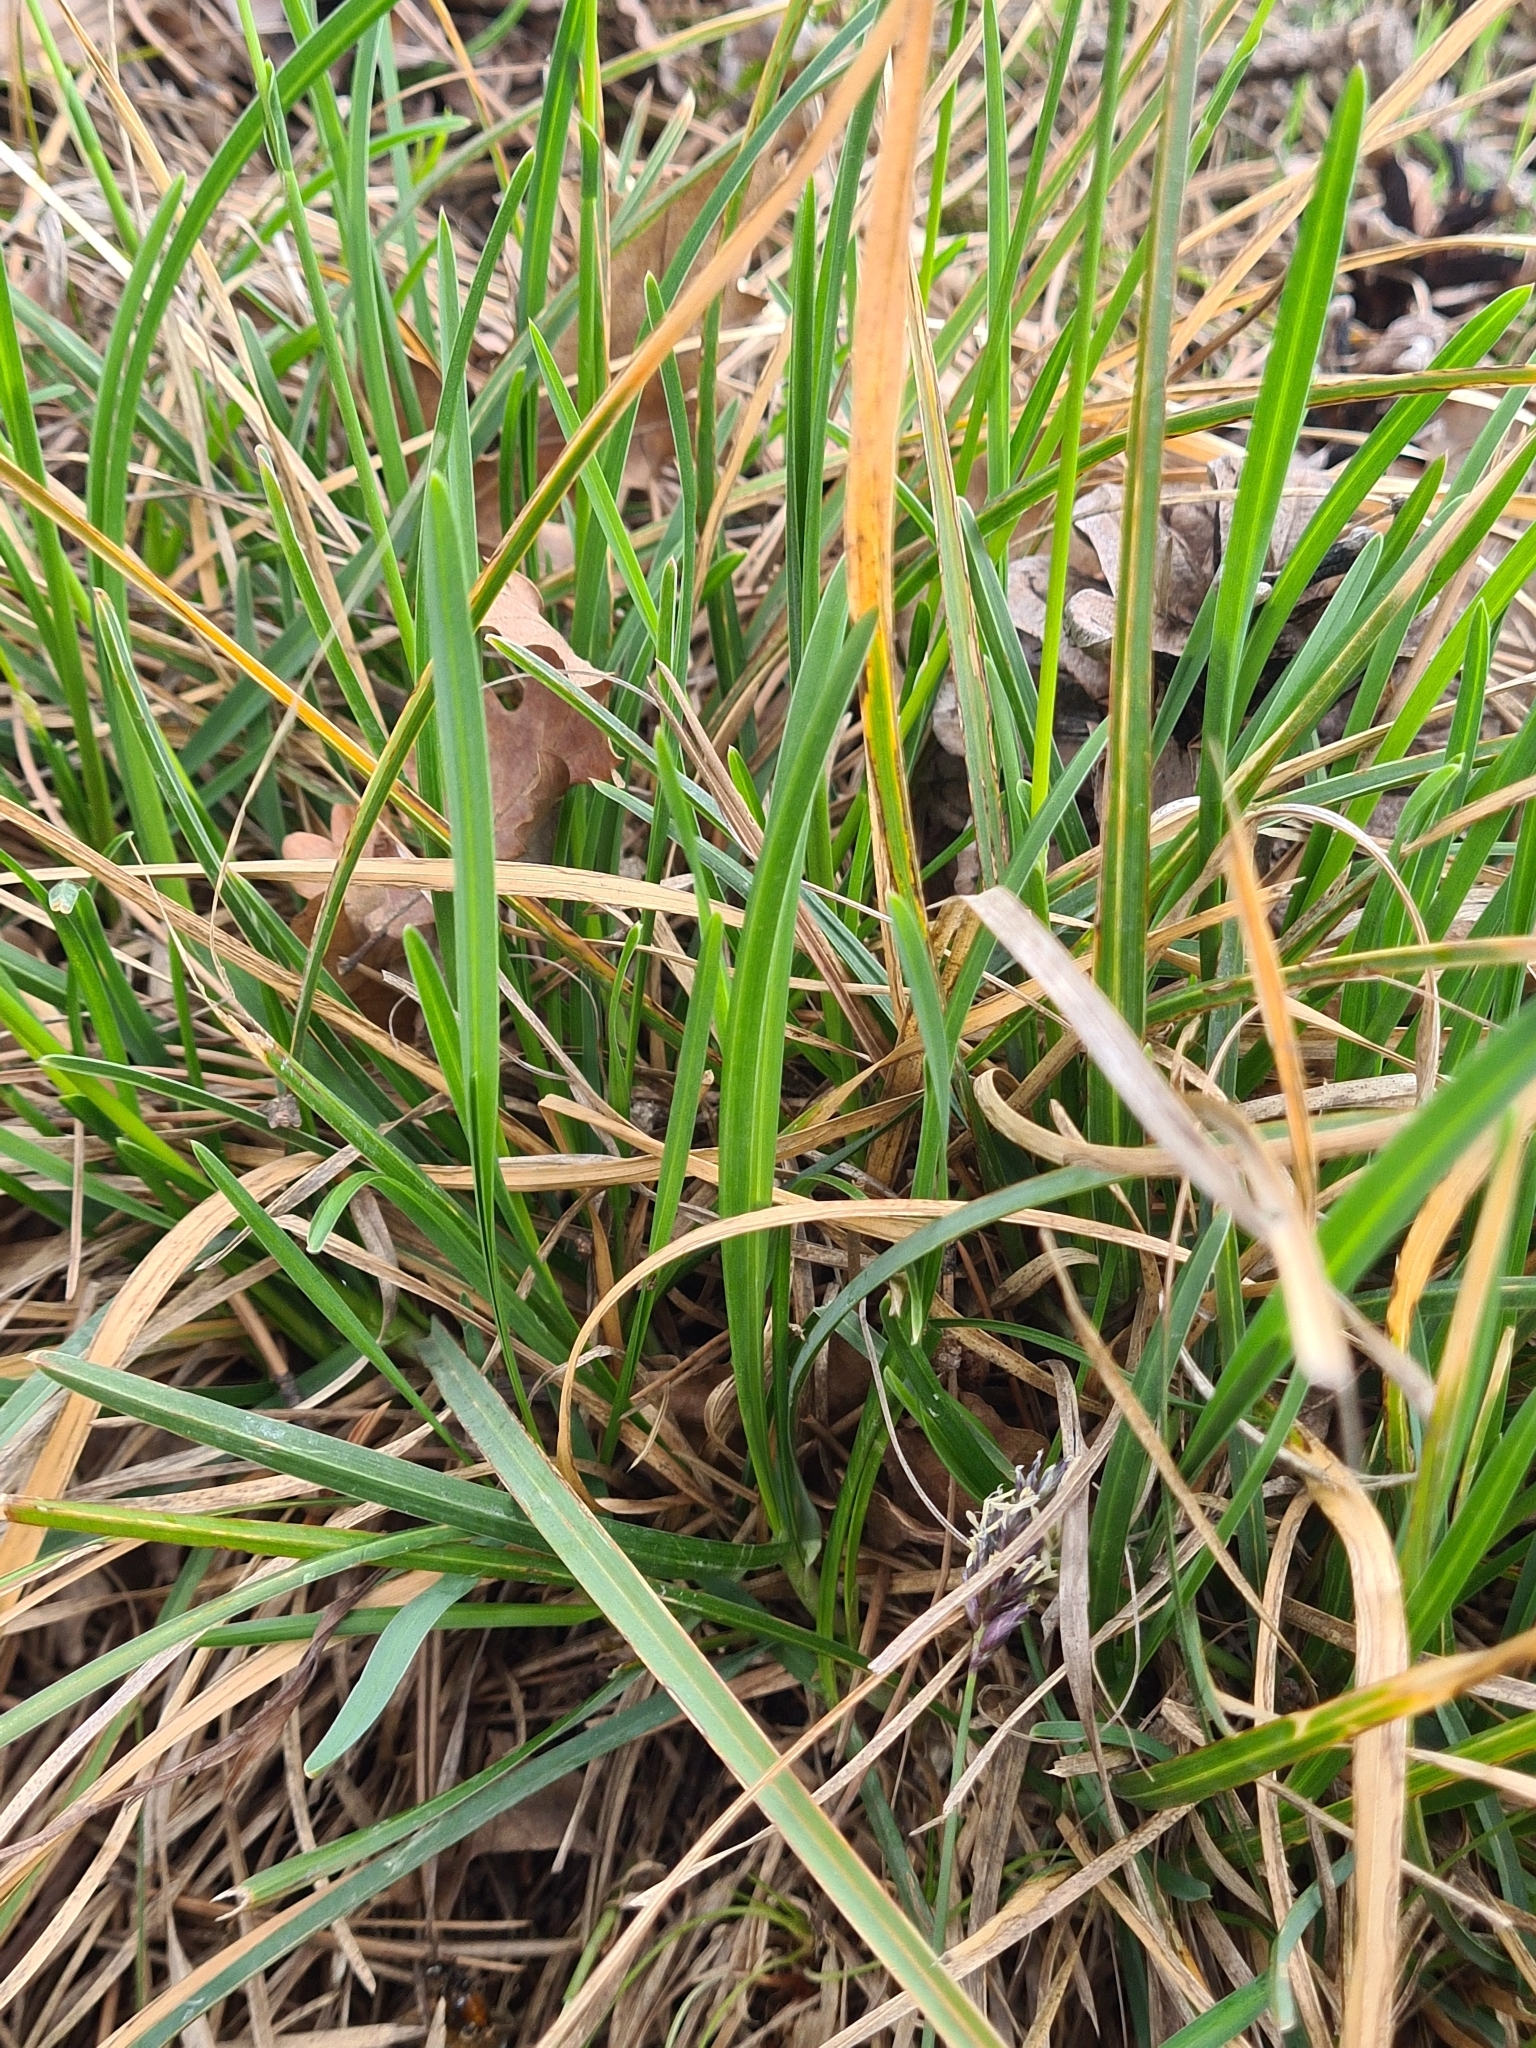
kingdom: Plantae
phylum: Tracheophyta
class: Liliopsida
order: Poales
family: Poaceae
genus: Sesleria
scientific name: Sesleria caerulea
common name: Blue moor-grass
